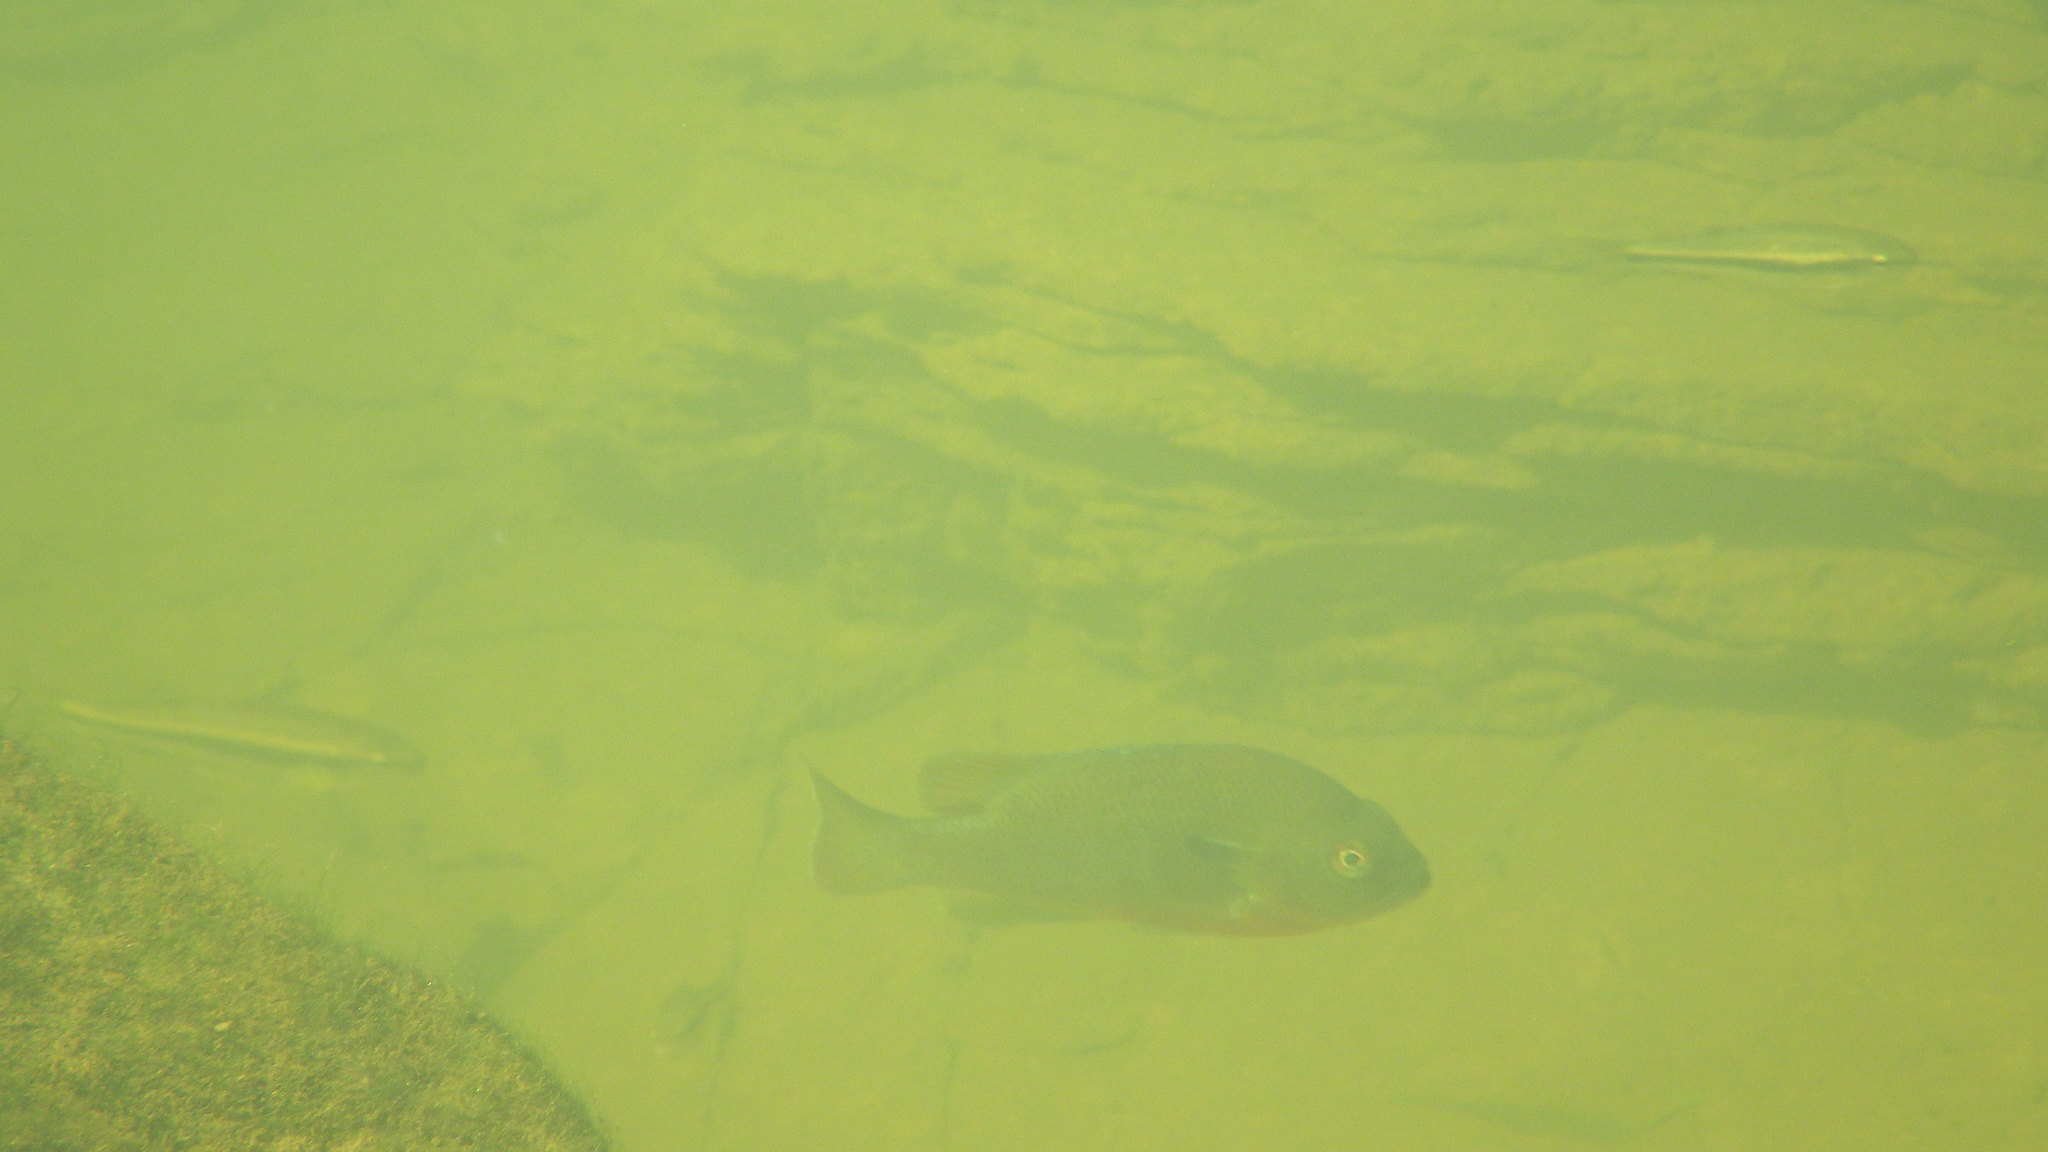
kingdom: Animalia
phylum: Chordata
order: Perciformes
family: Centrarchidae
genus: Lepomis
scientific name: Lepomis auritus
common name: Redbreast sunfish
